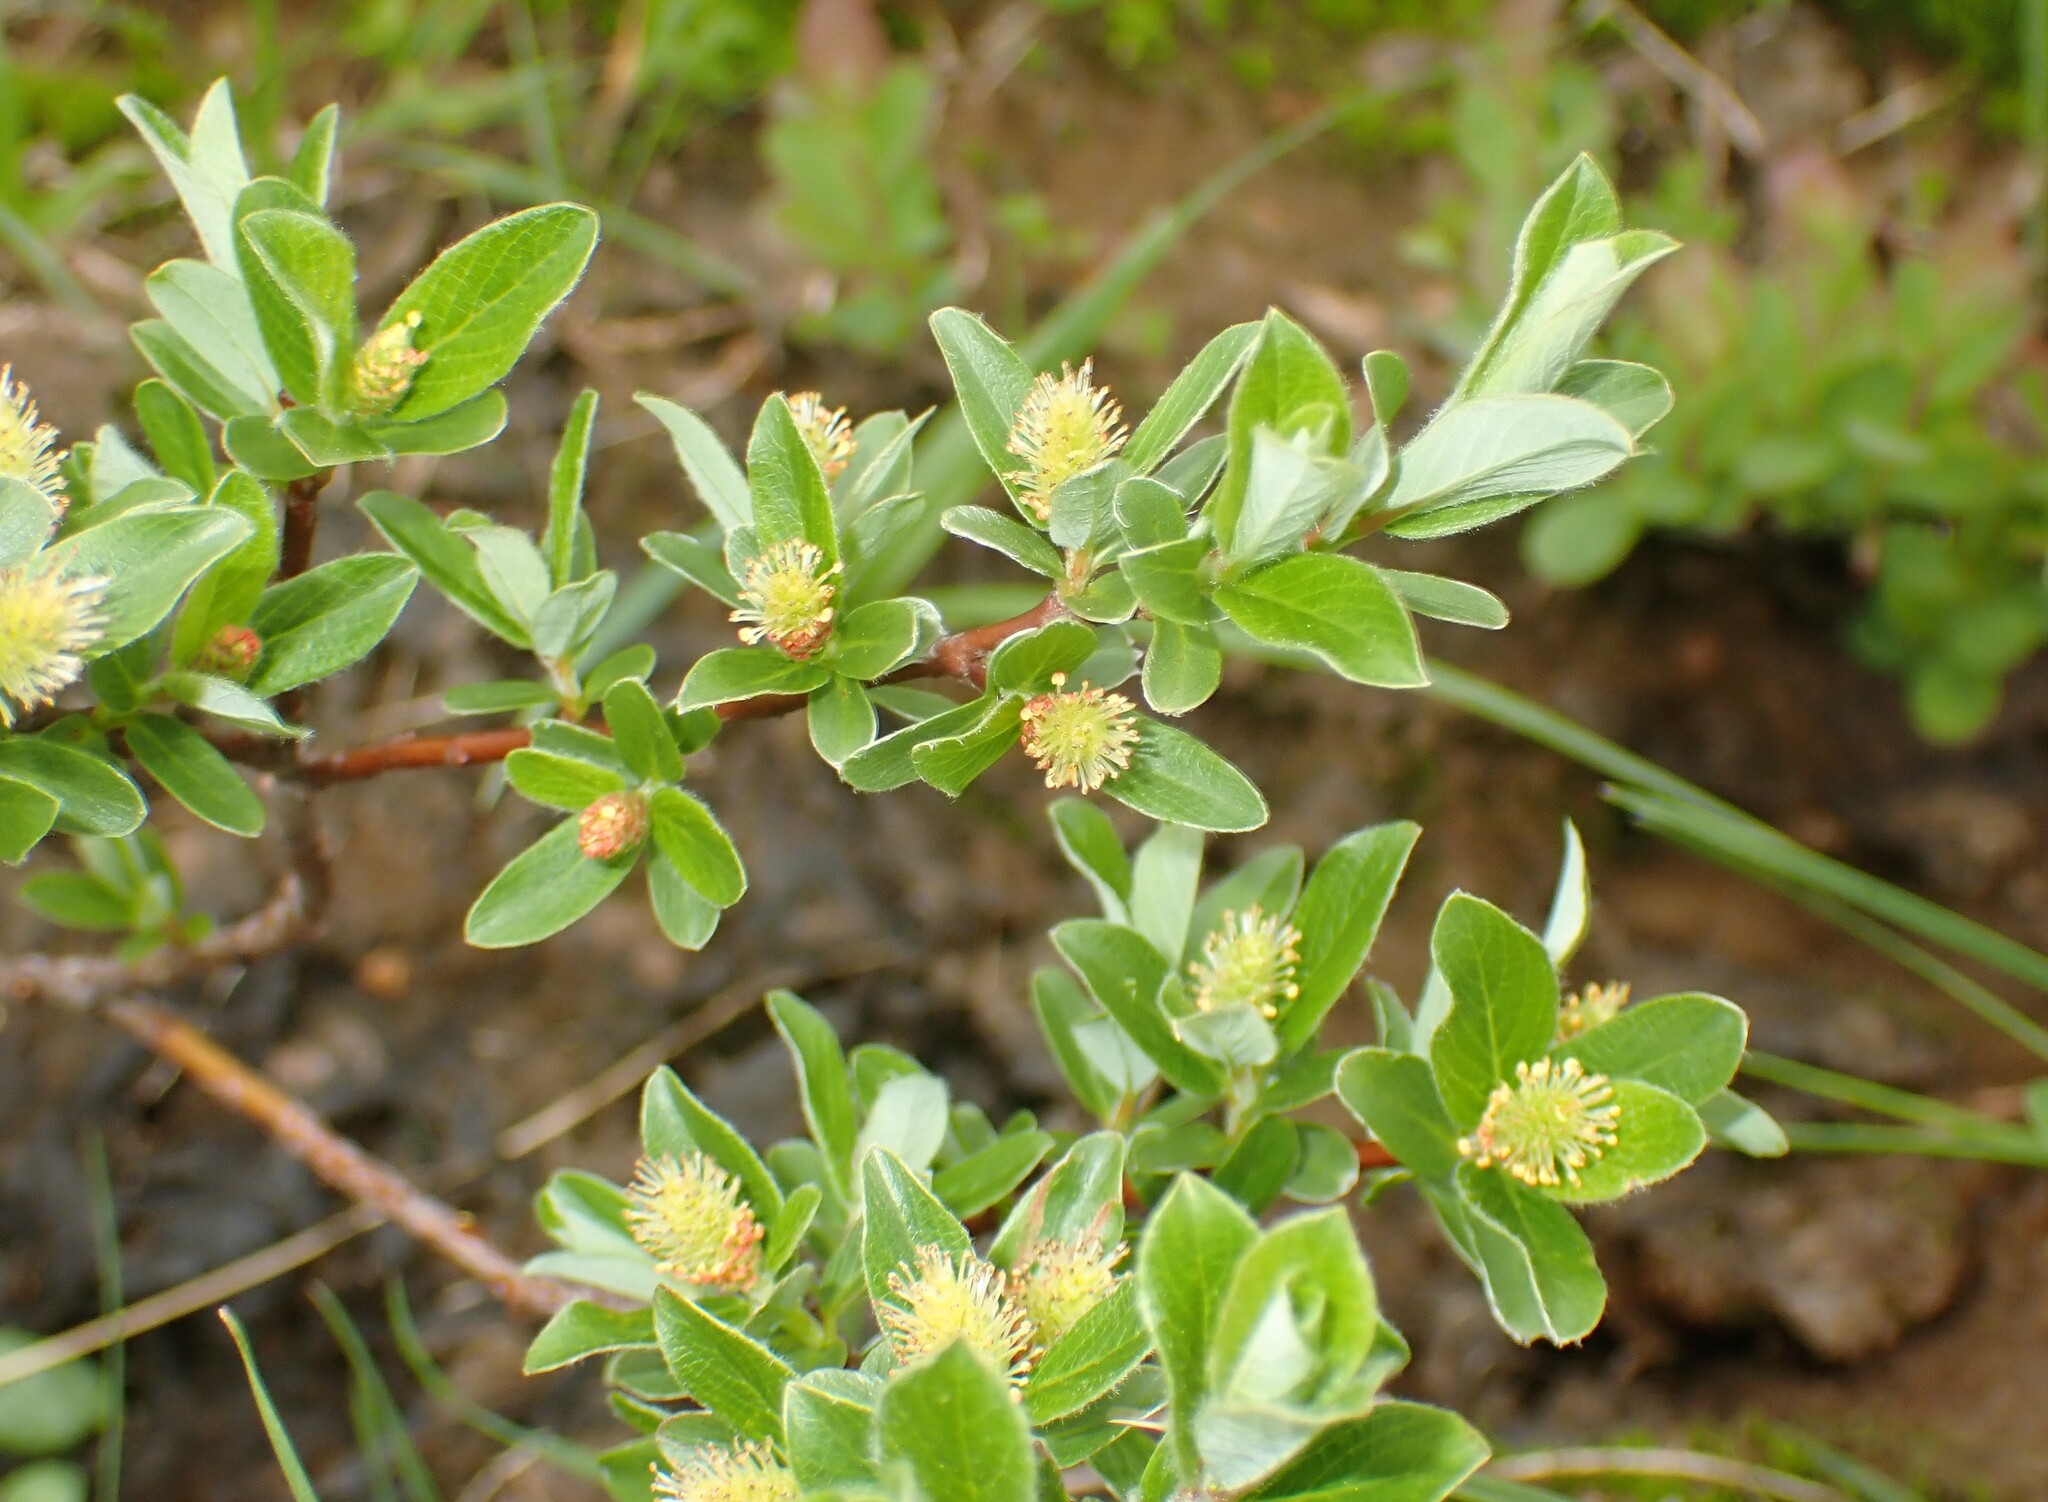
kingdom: Plantae
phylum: Tracheophyta
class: Magnoliopsida
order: Malpighiales
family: Salicaceae
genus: Salix
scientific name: Salix brachycarpa
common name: Barren-ground willow
